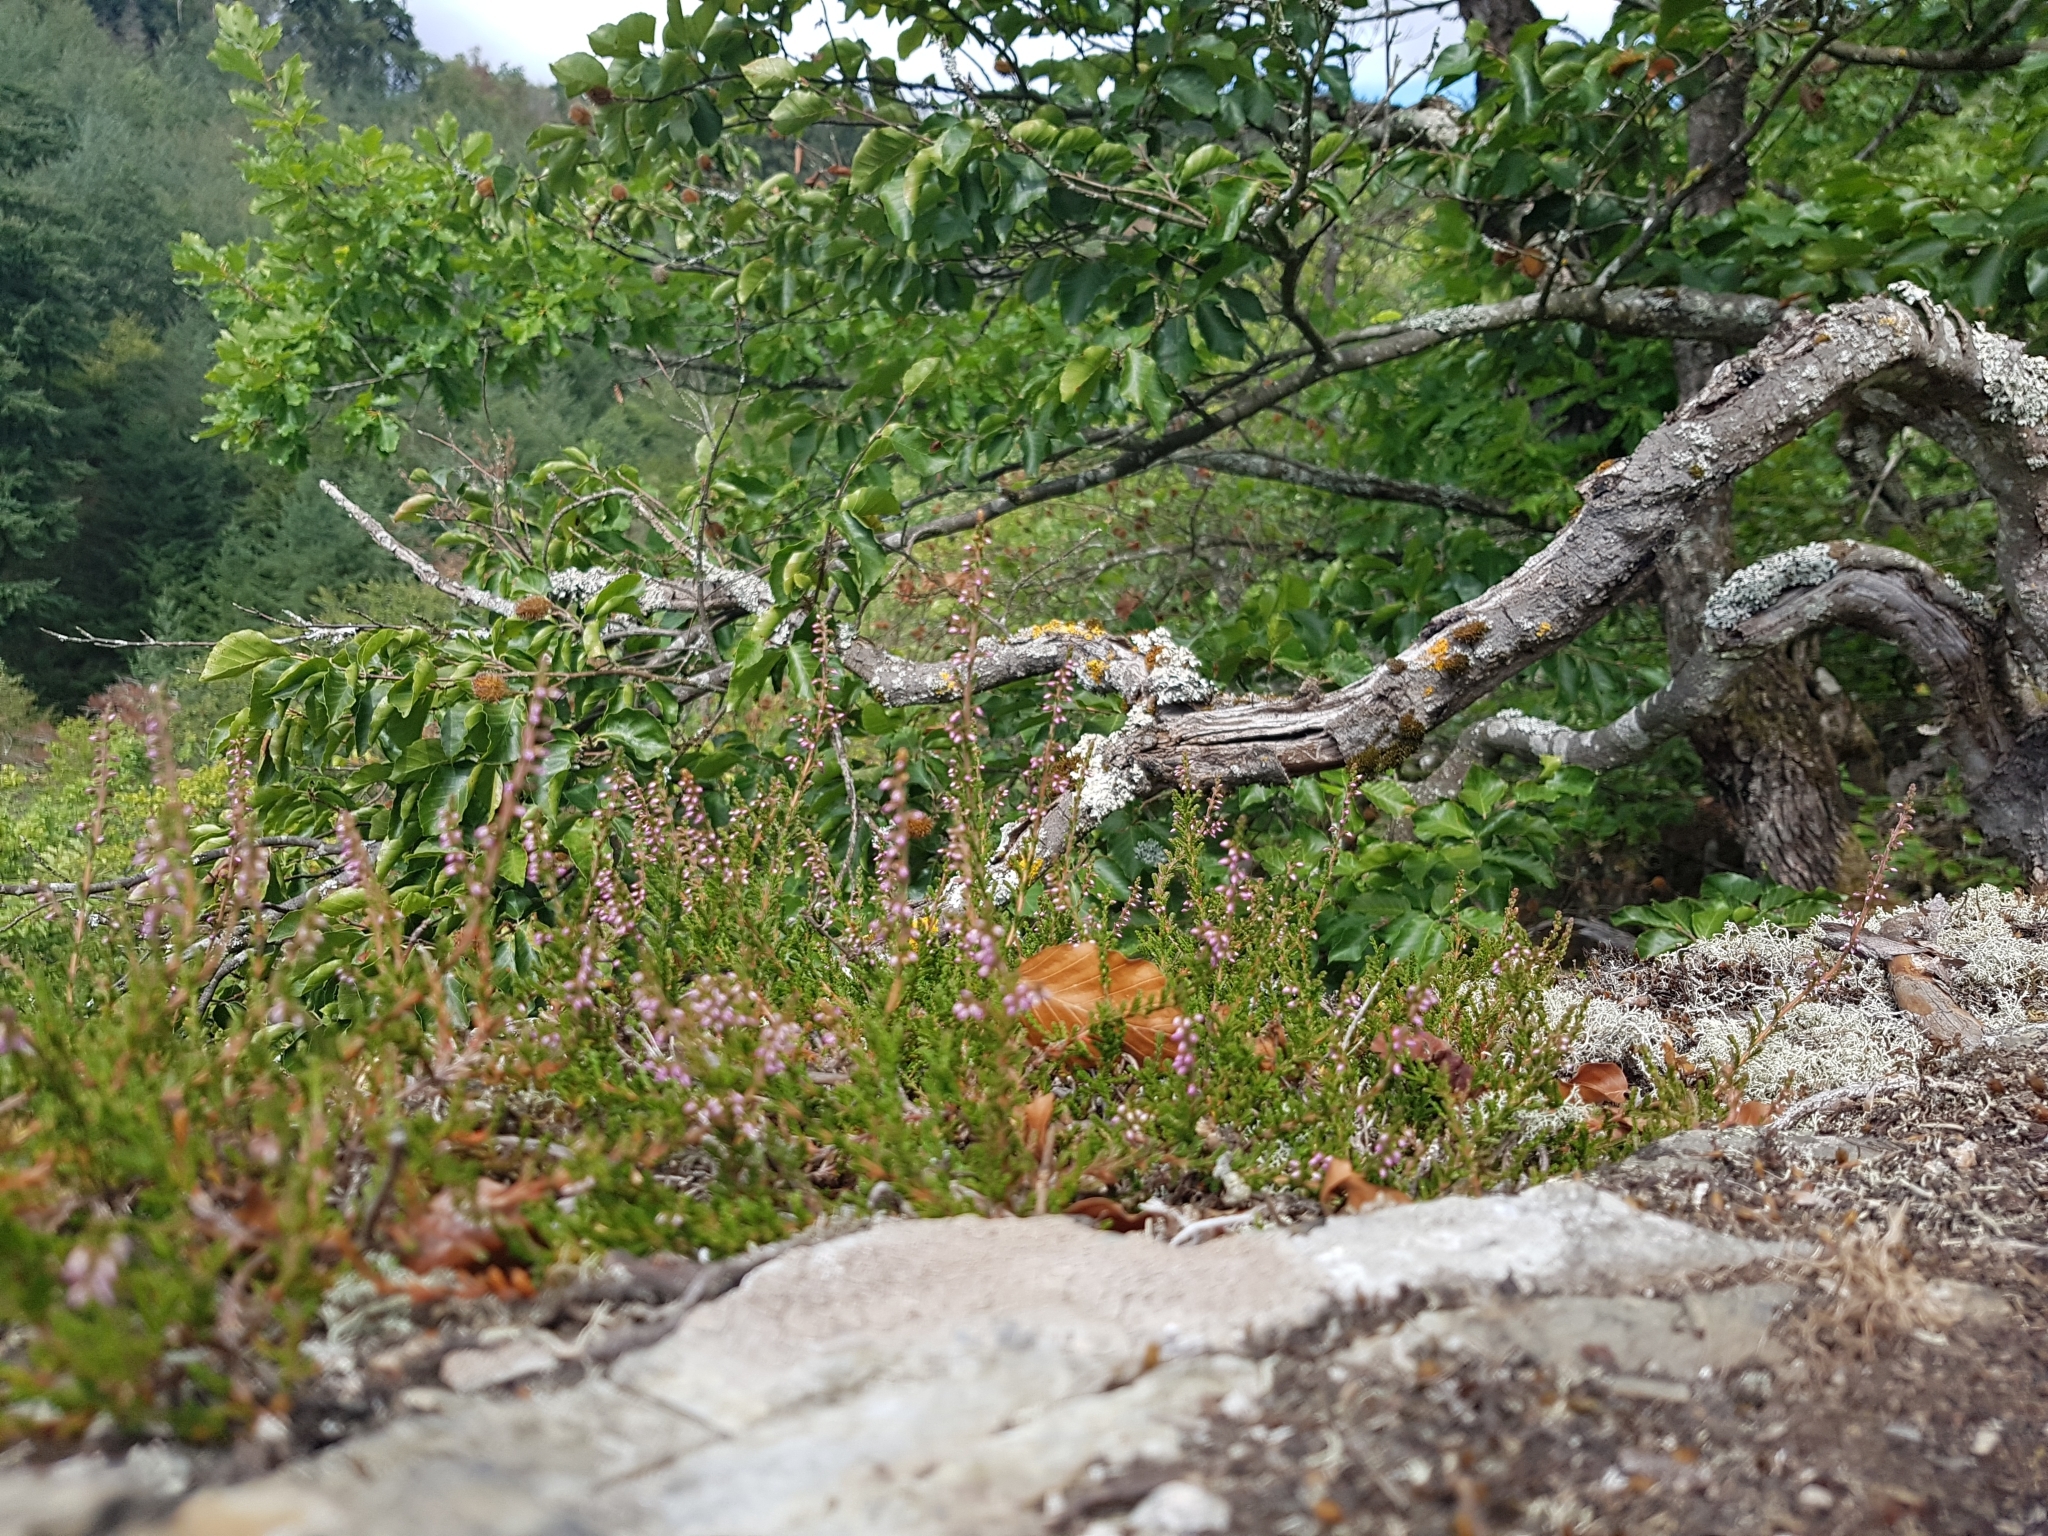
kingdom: Plantae
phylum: Tracheophyta
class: Magnoliopsida
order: Ericales
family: Ericaceae
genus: Calluna
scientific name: Calluna vulgaris
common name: Heather
